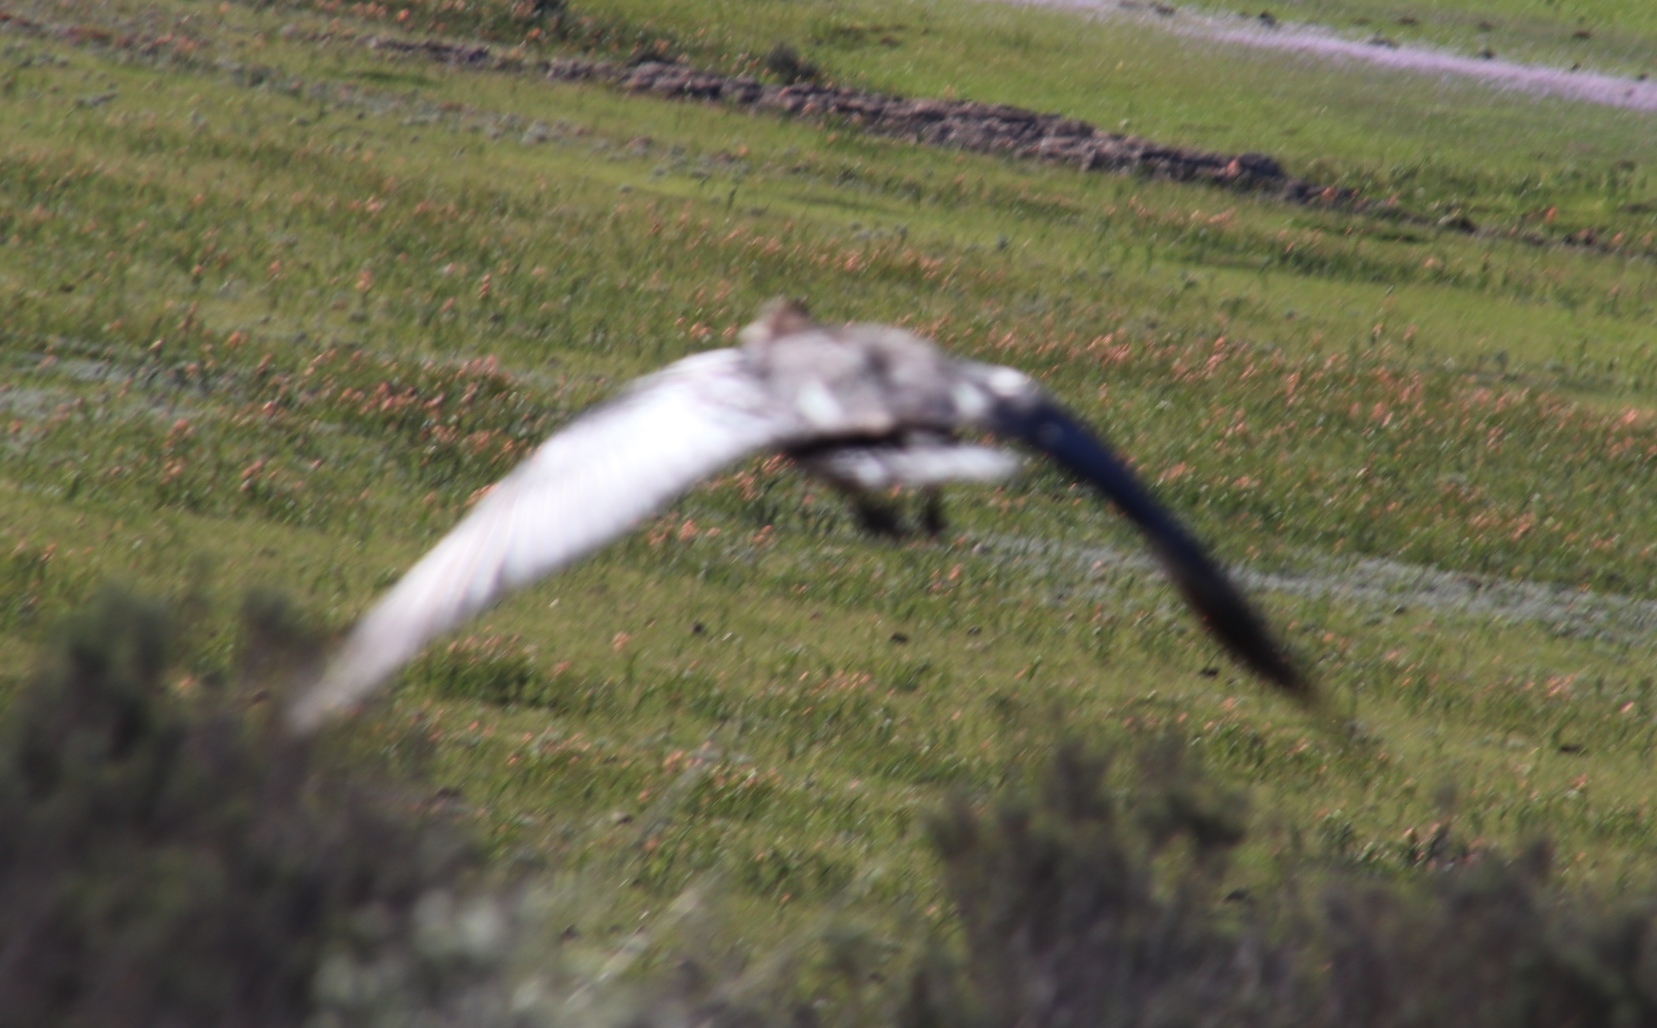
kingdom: Animalia
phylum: Chordata
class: Aves
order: Anseriformes
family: Anatidae
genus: Plectropterus
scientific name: Plectropterus gambensis
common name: Spur-winged goose
